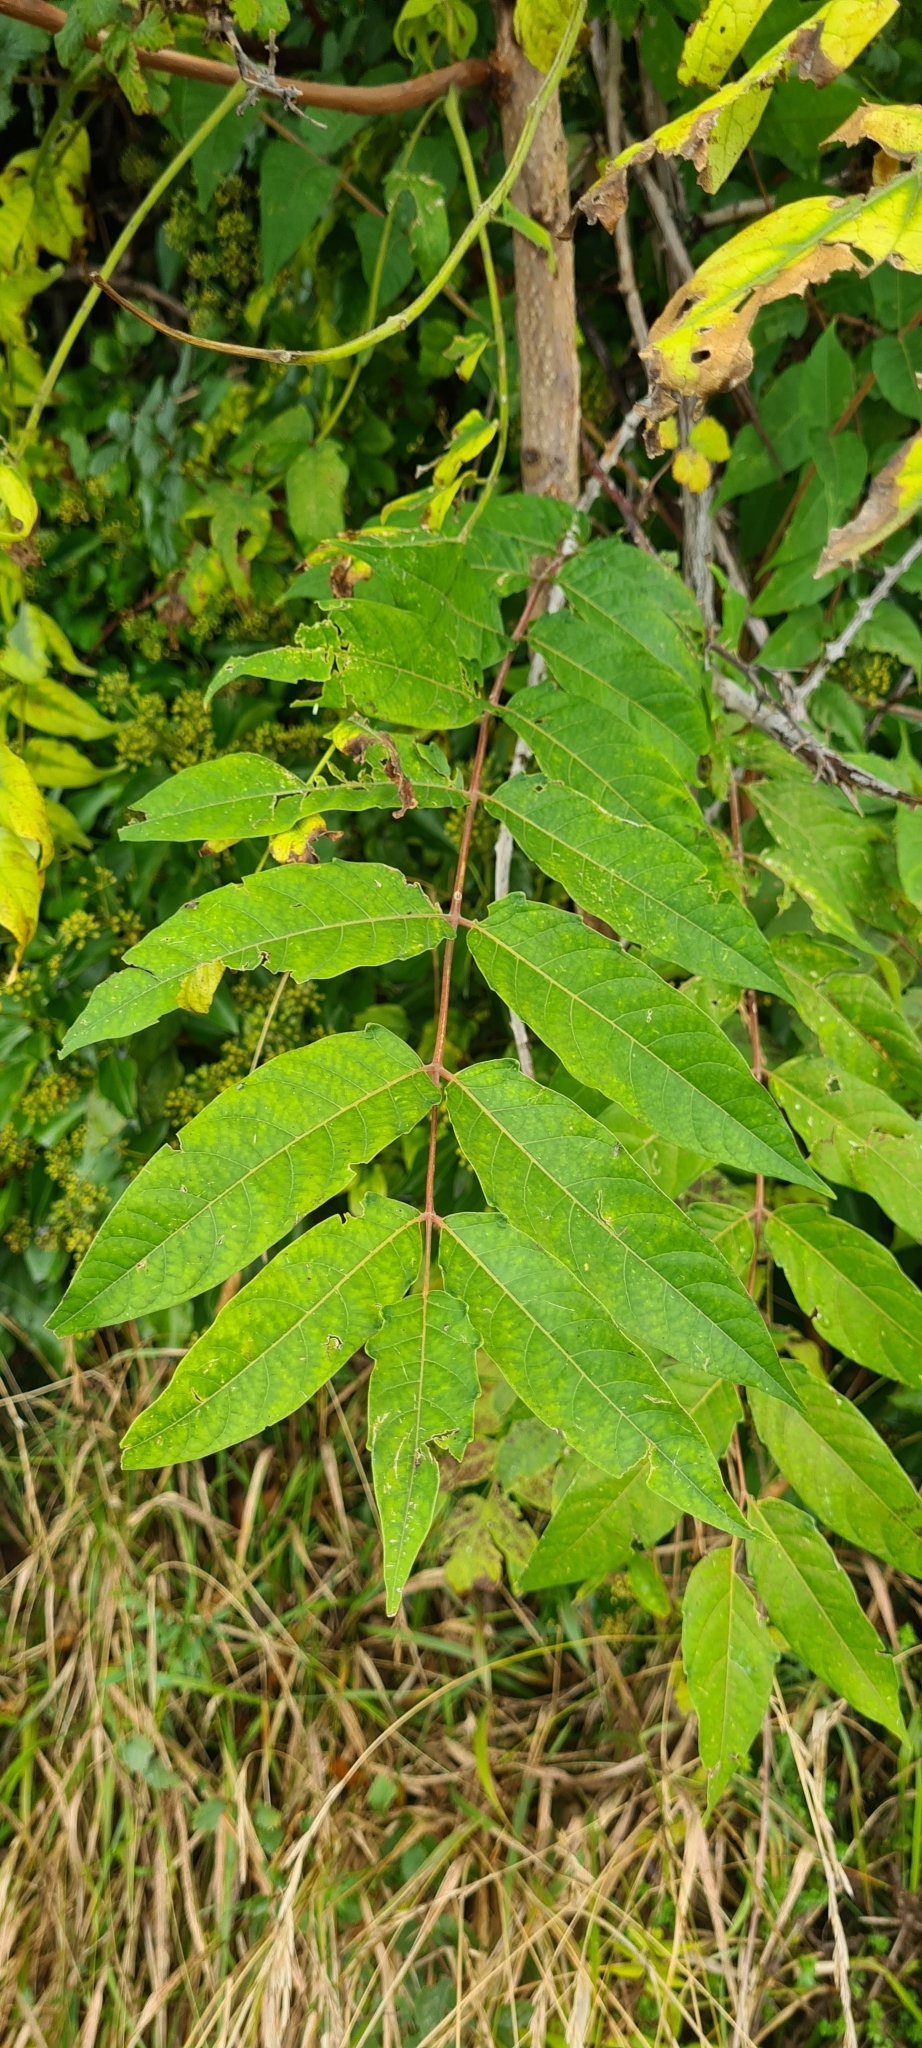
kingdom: Plantae
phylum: Tracheophyta
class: Magnoliopsida
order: Sapindales
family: Simaroubaceae
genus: Ailanthus
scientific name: Ailanthus altissima
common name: Tree-of-heaven
